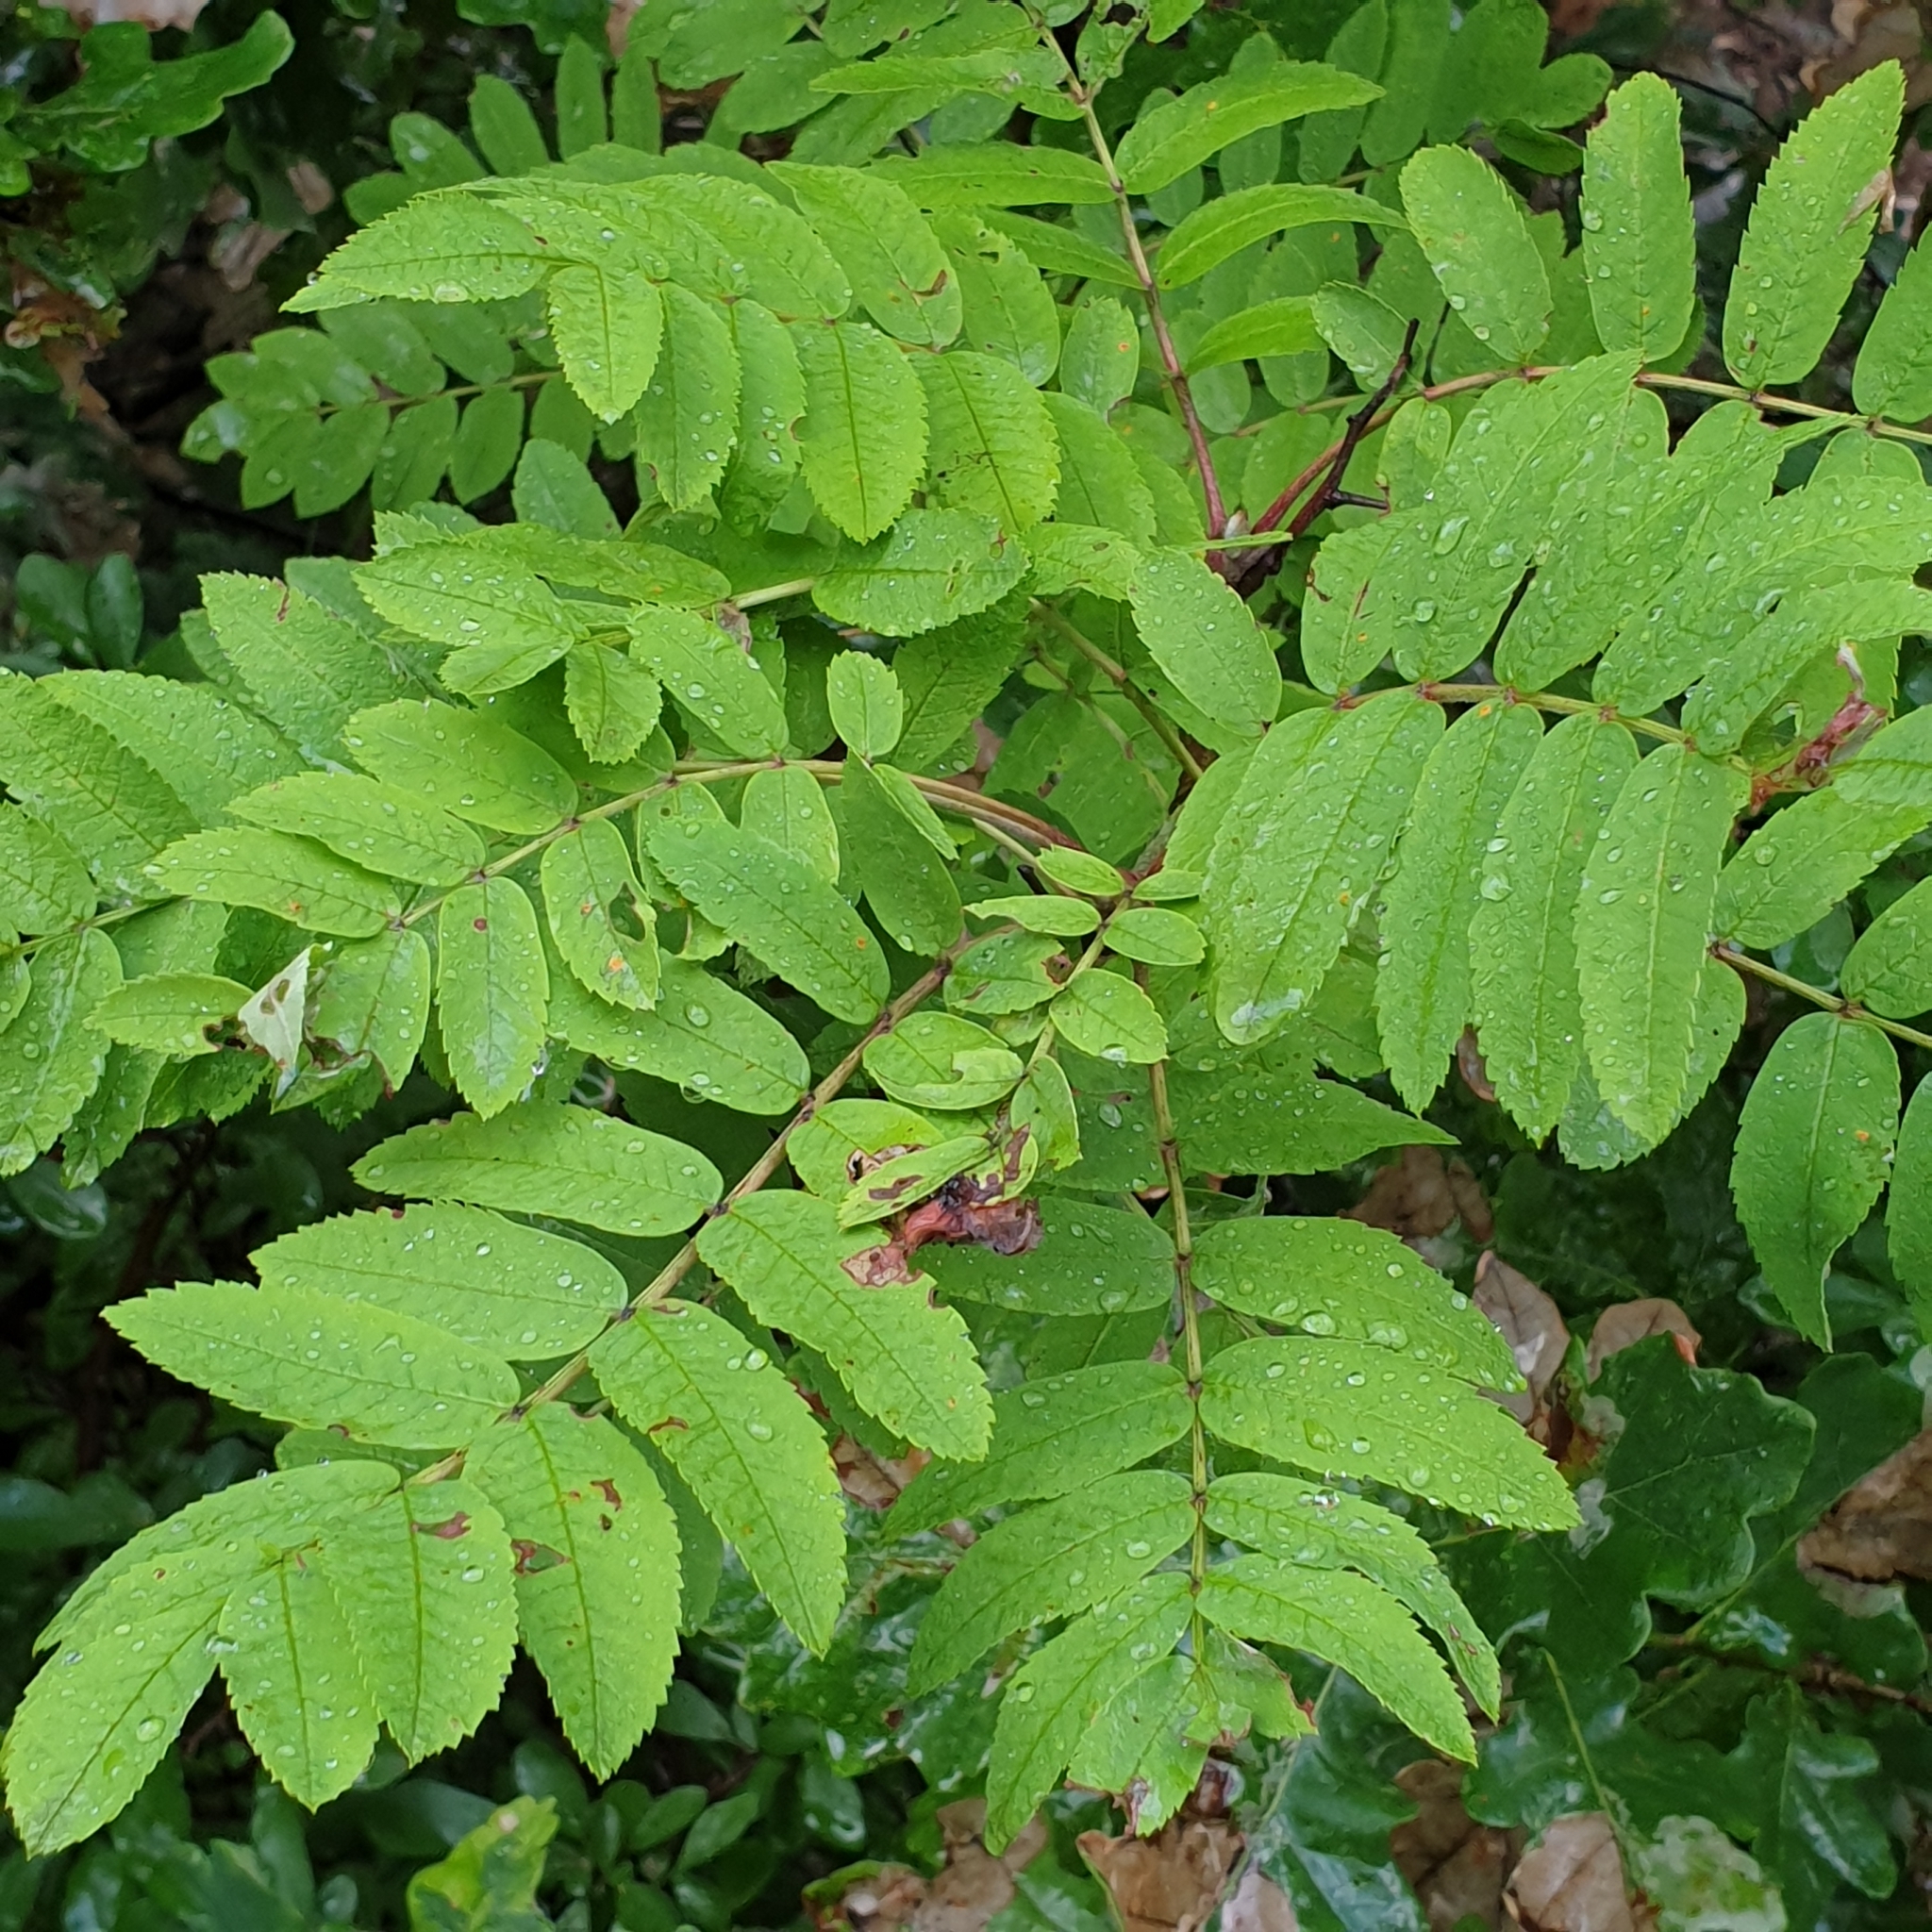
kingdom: Plantae
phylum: Tracheophyta
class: Magnoliopsida
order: Rosales
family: Rosaceae
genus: Sorbus
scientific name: Sorbus aucuparia
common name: Rowan
